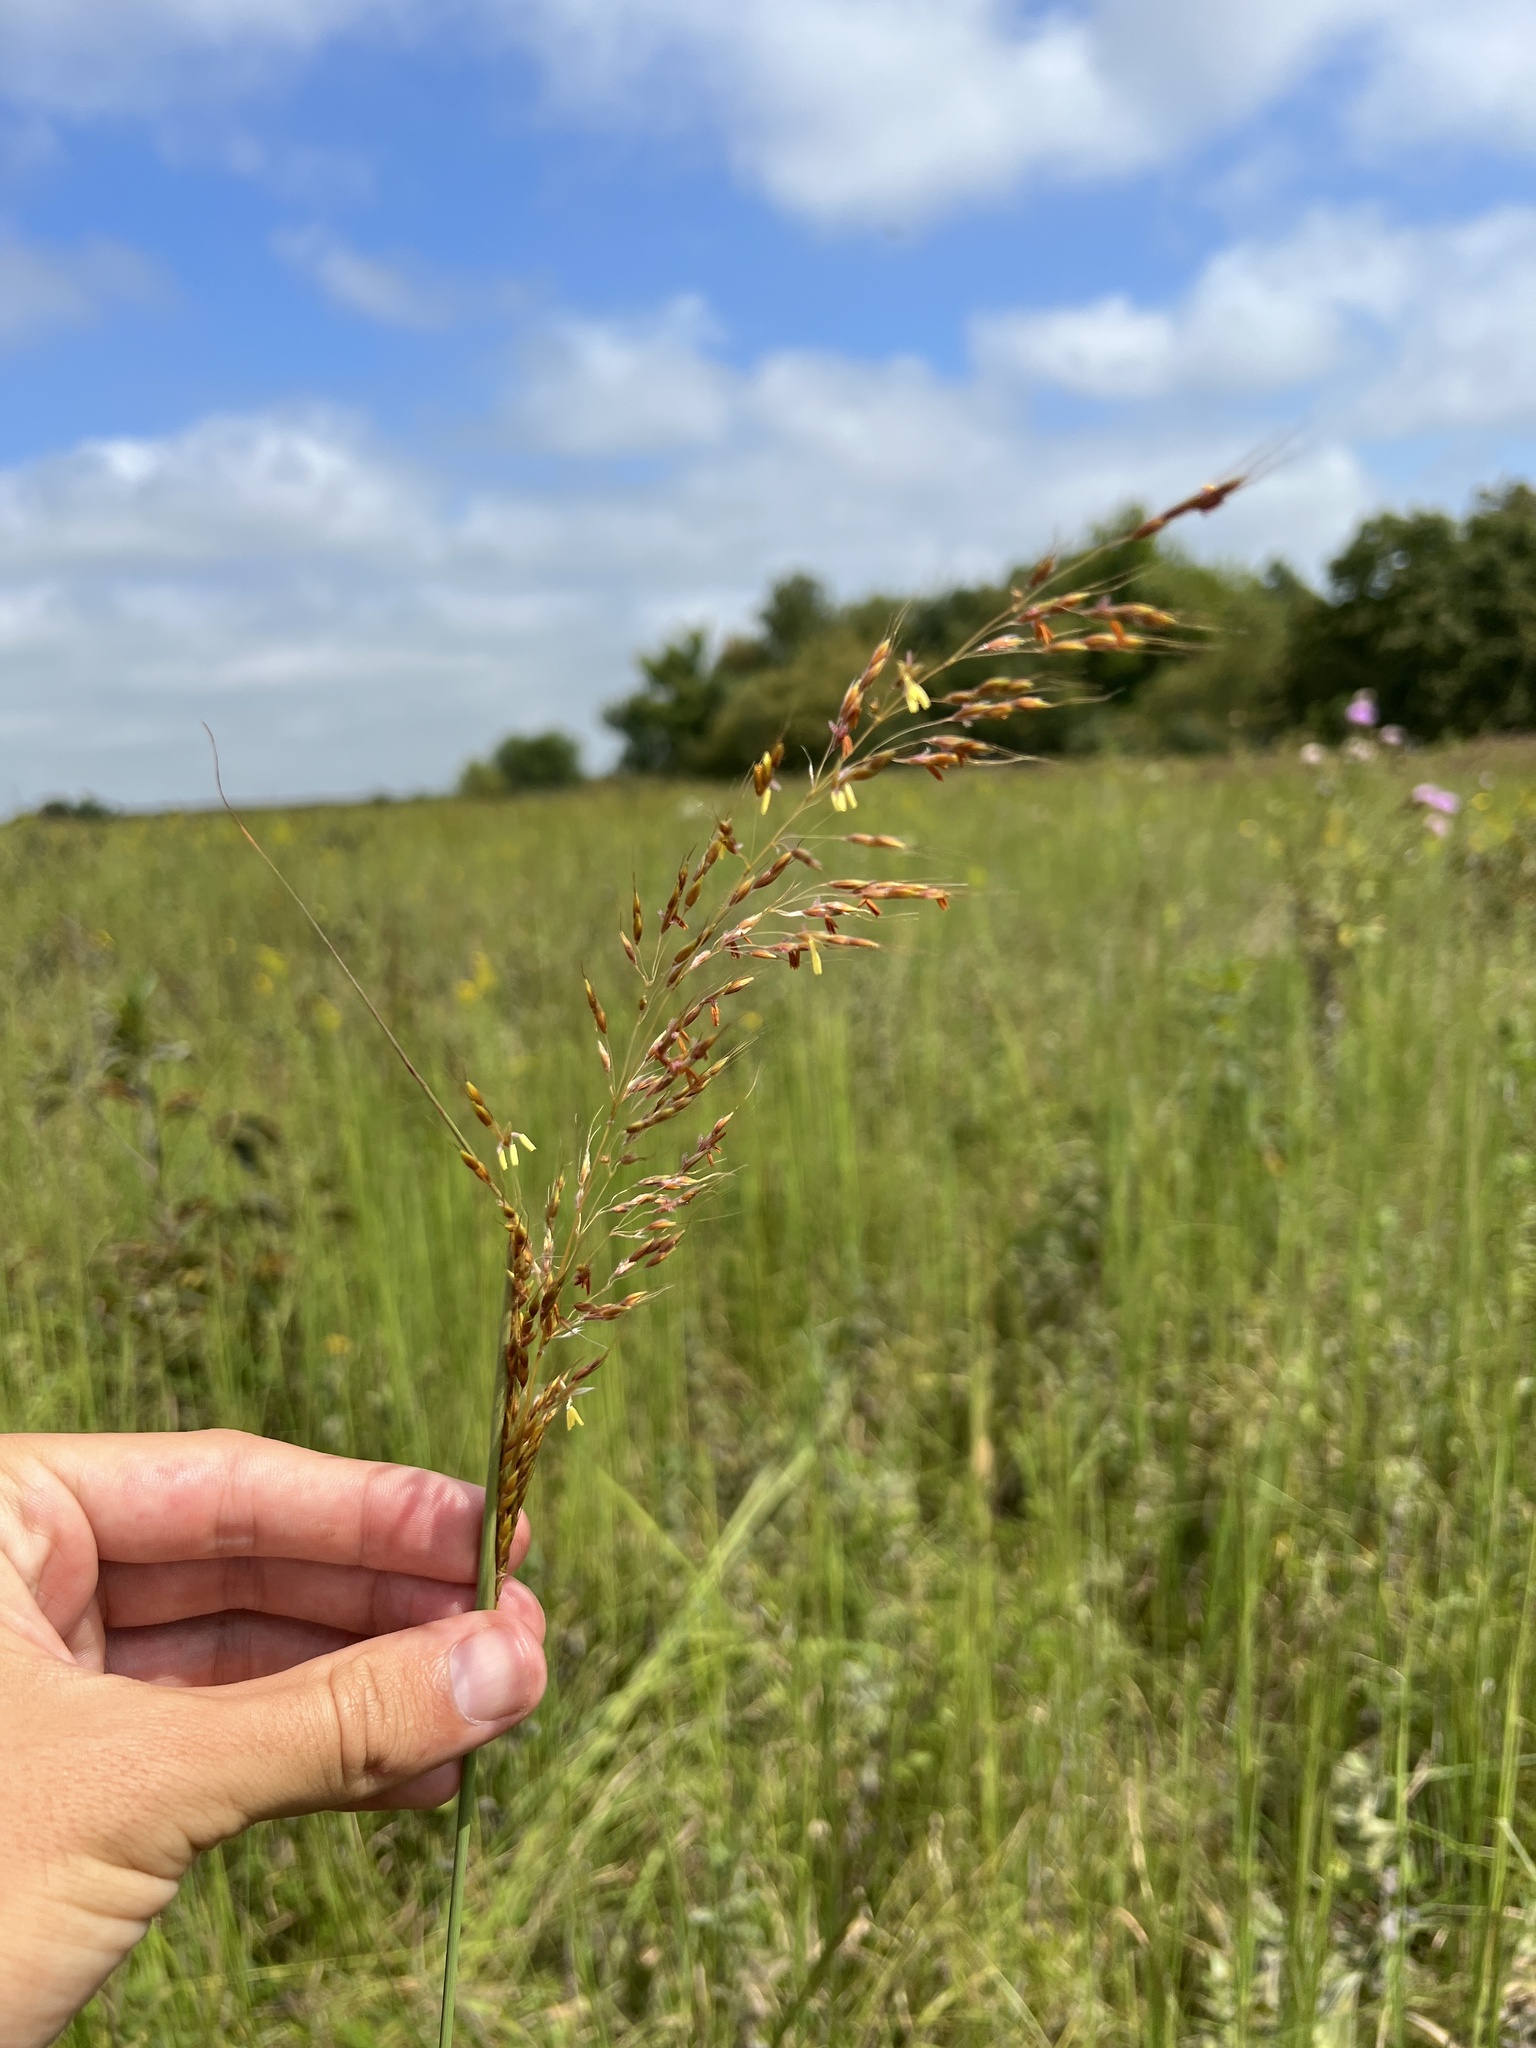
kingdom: Plantae
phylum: Tracheophyta
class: Liliopsida
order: Poales
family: Poaceae
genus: Sorghastrum
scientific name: Sorghastrum nutans
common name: Indian grass
